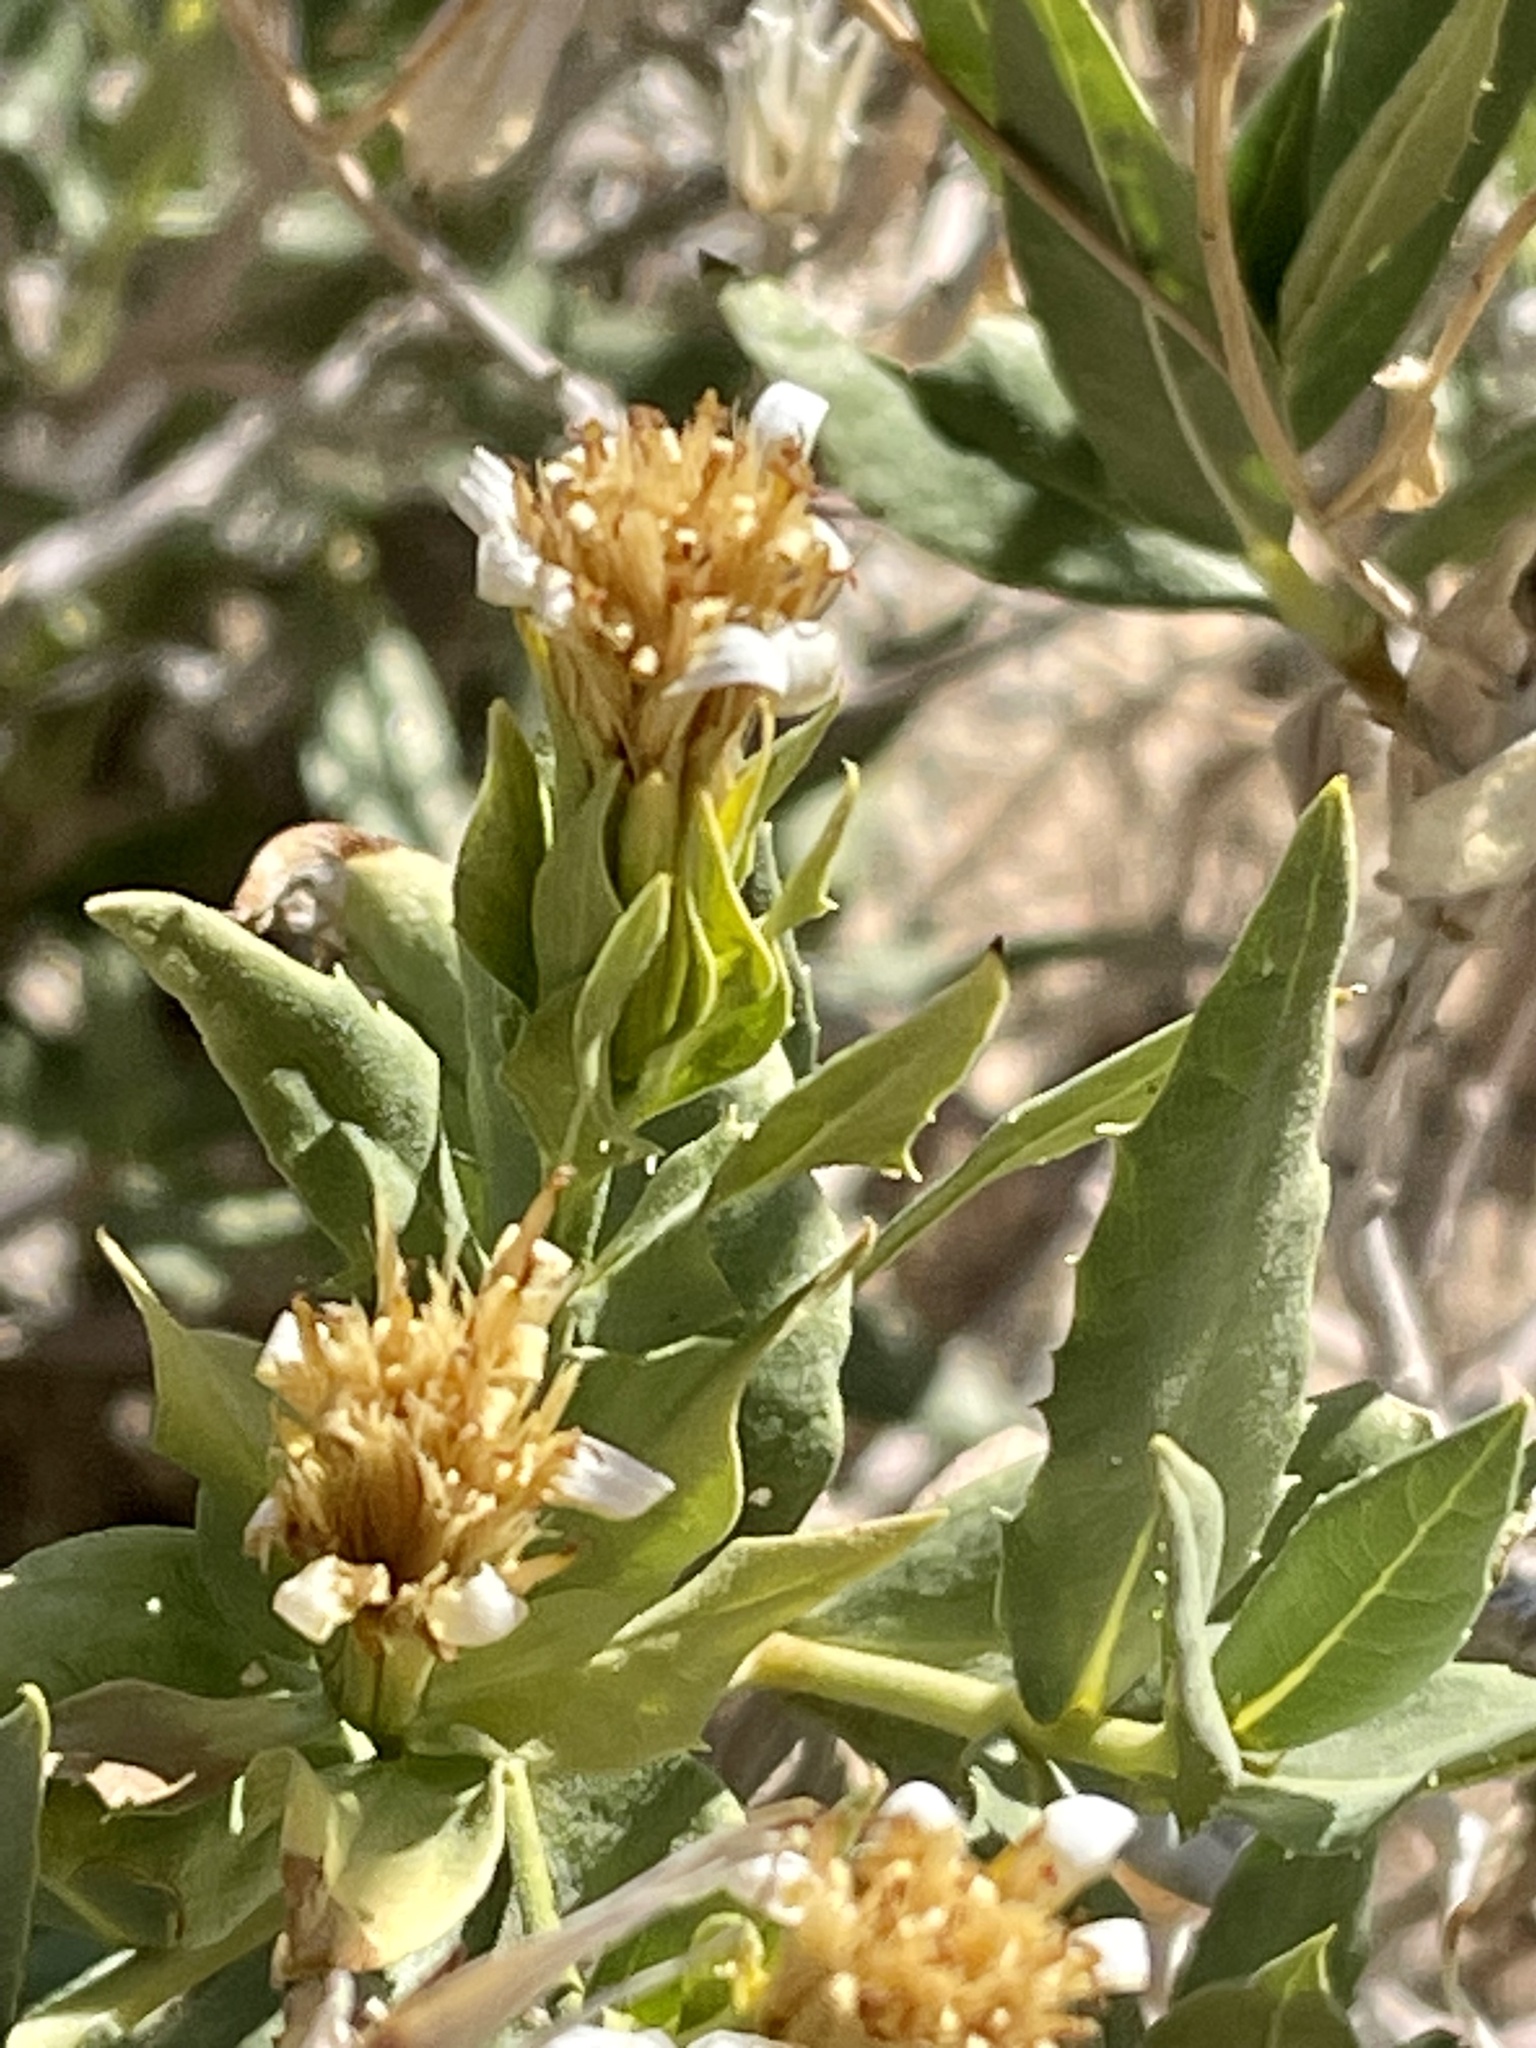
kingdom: Plantae
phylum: Tracheophyta
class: Magnoliopsida
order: Asterales
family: Asteraceae
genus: Trixis
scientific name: Trixis californica
